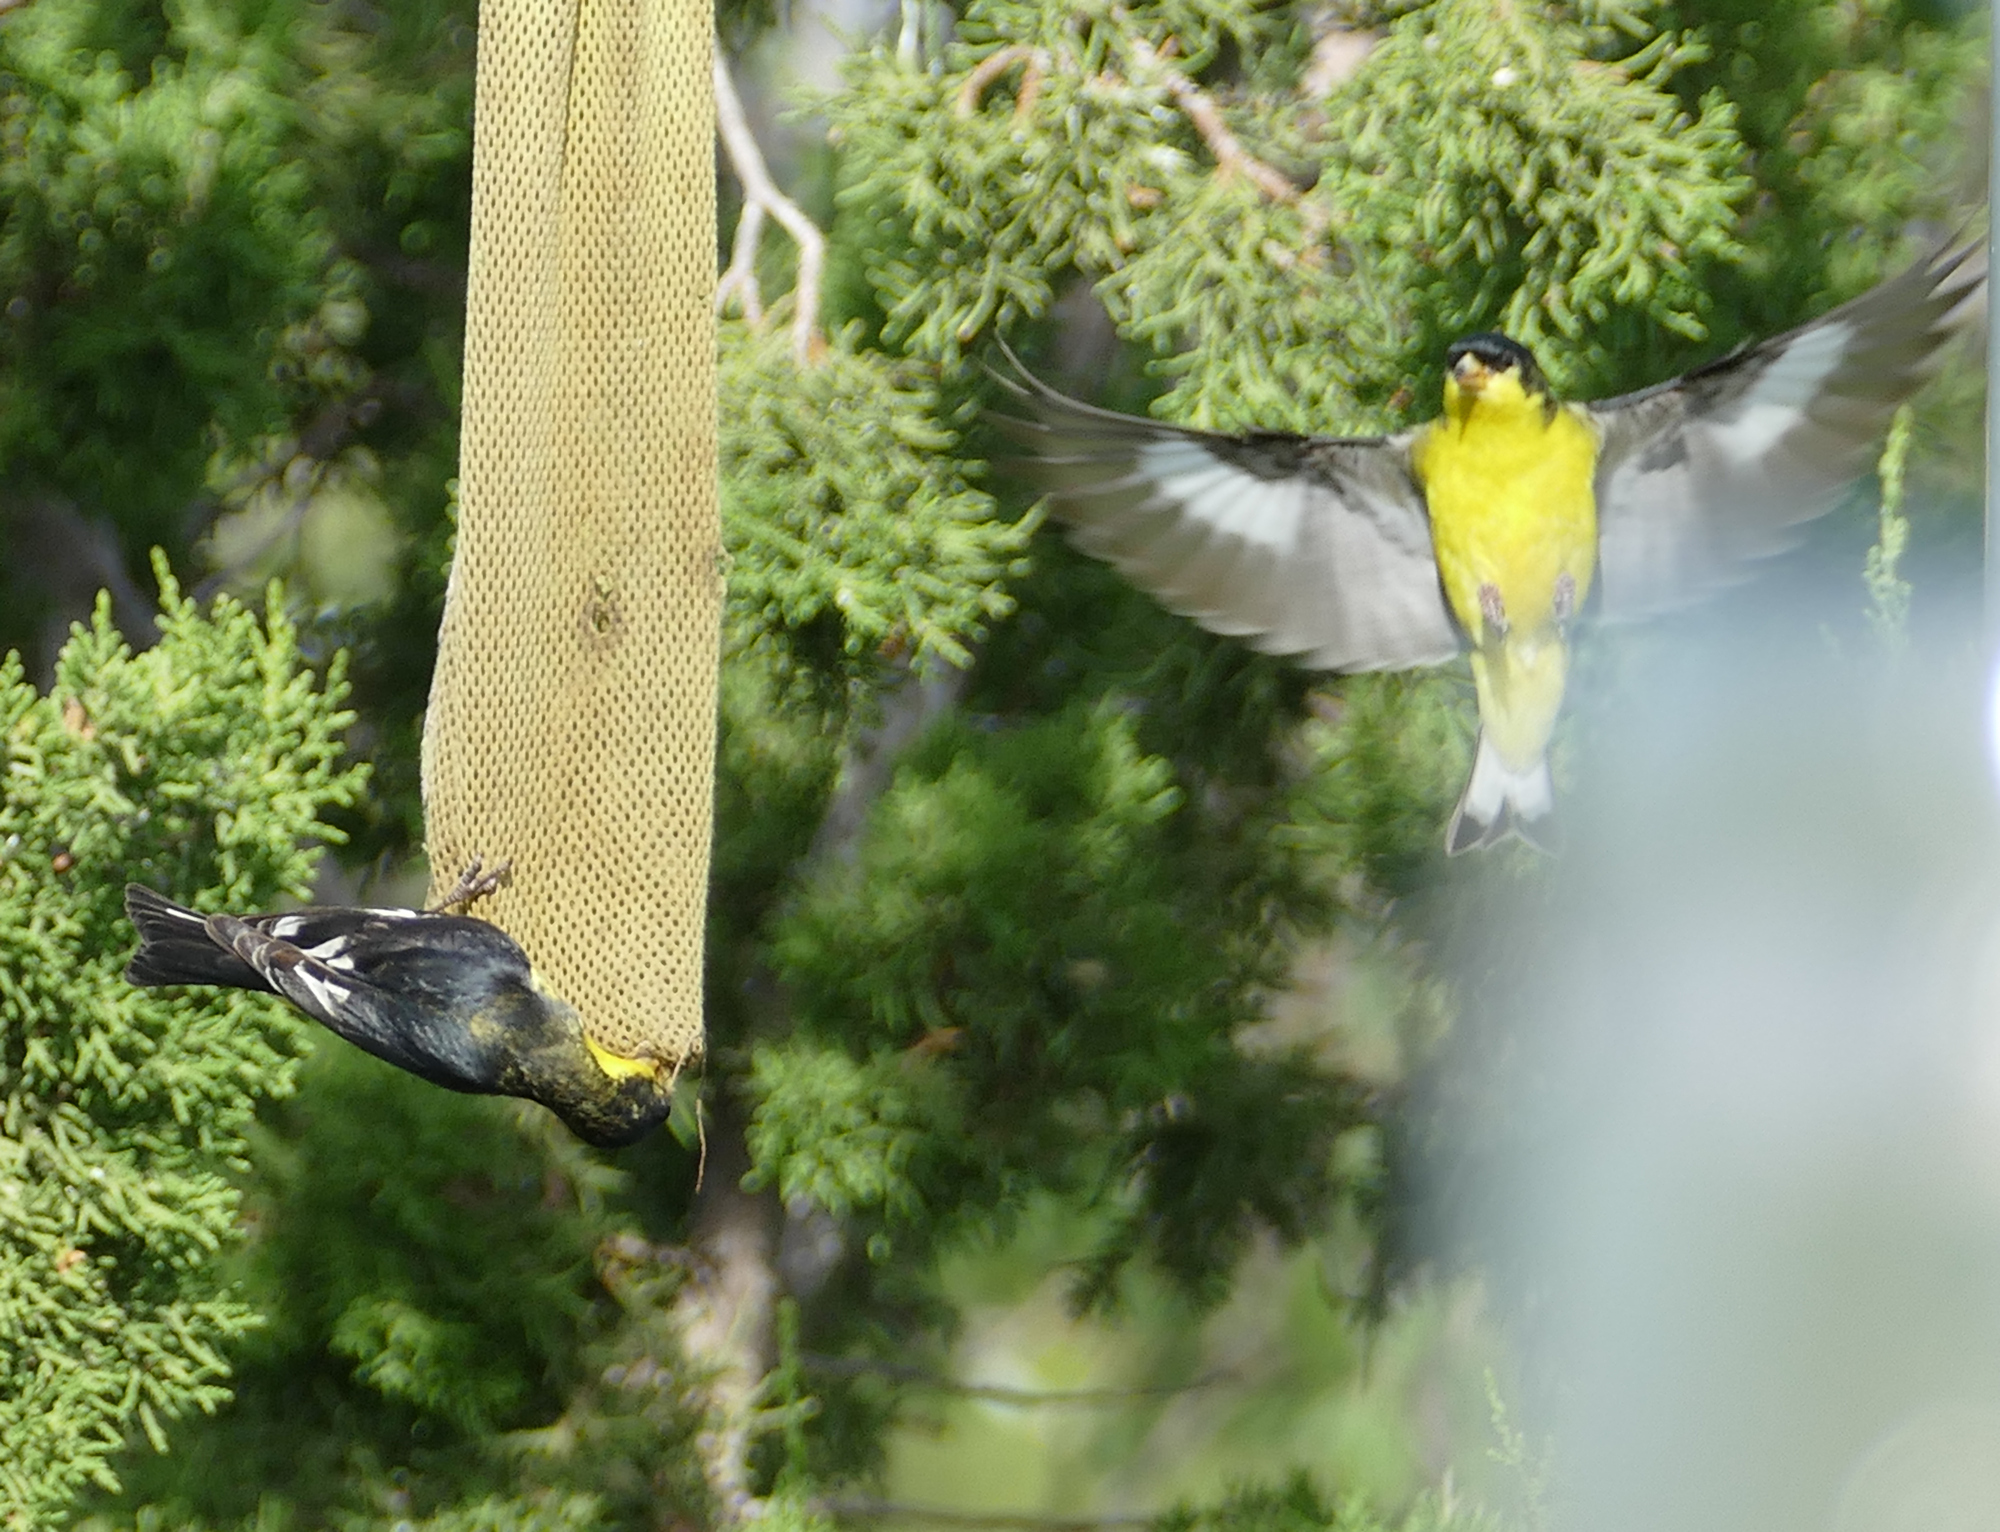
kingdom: Animalia
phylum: Chordata
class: Aves
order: Passeriformes
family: Fringillidae
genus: Spinus
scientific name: Spinus psaltria
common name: Lesser goldfinch
